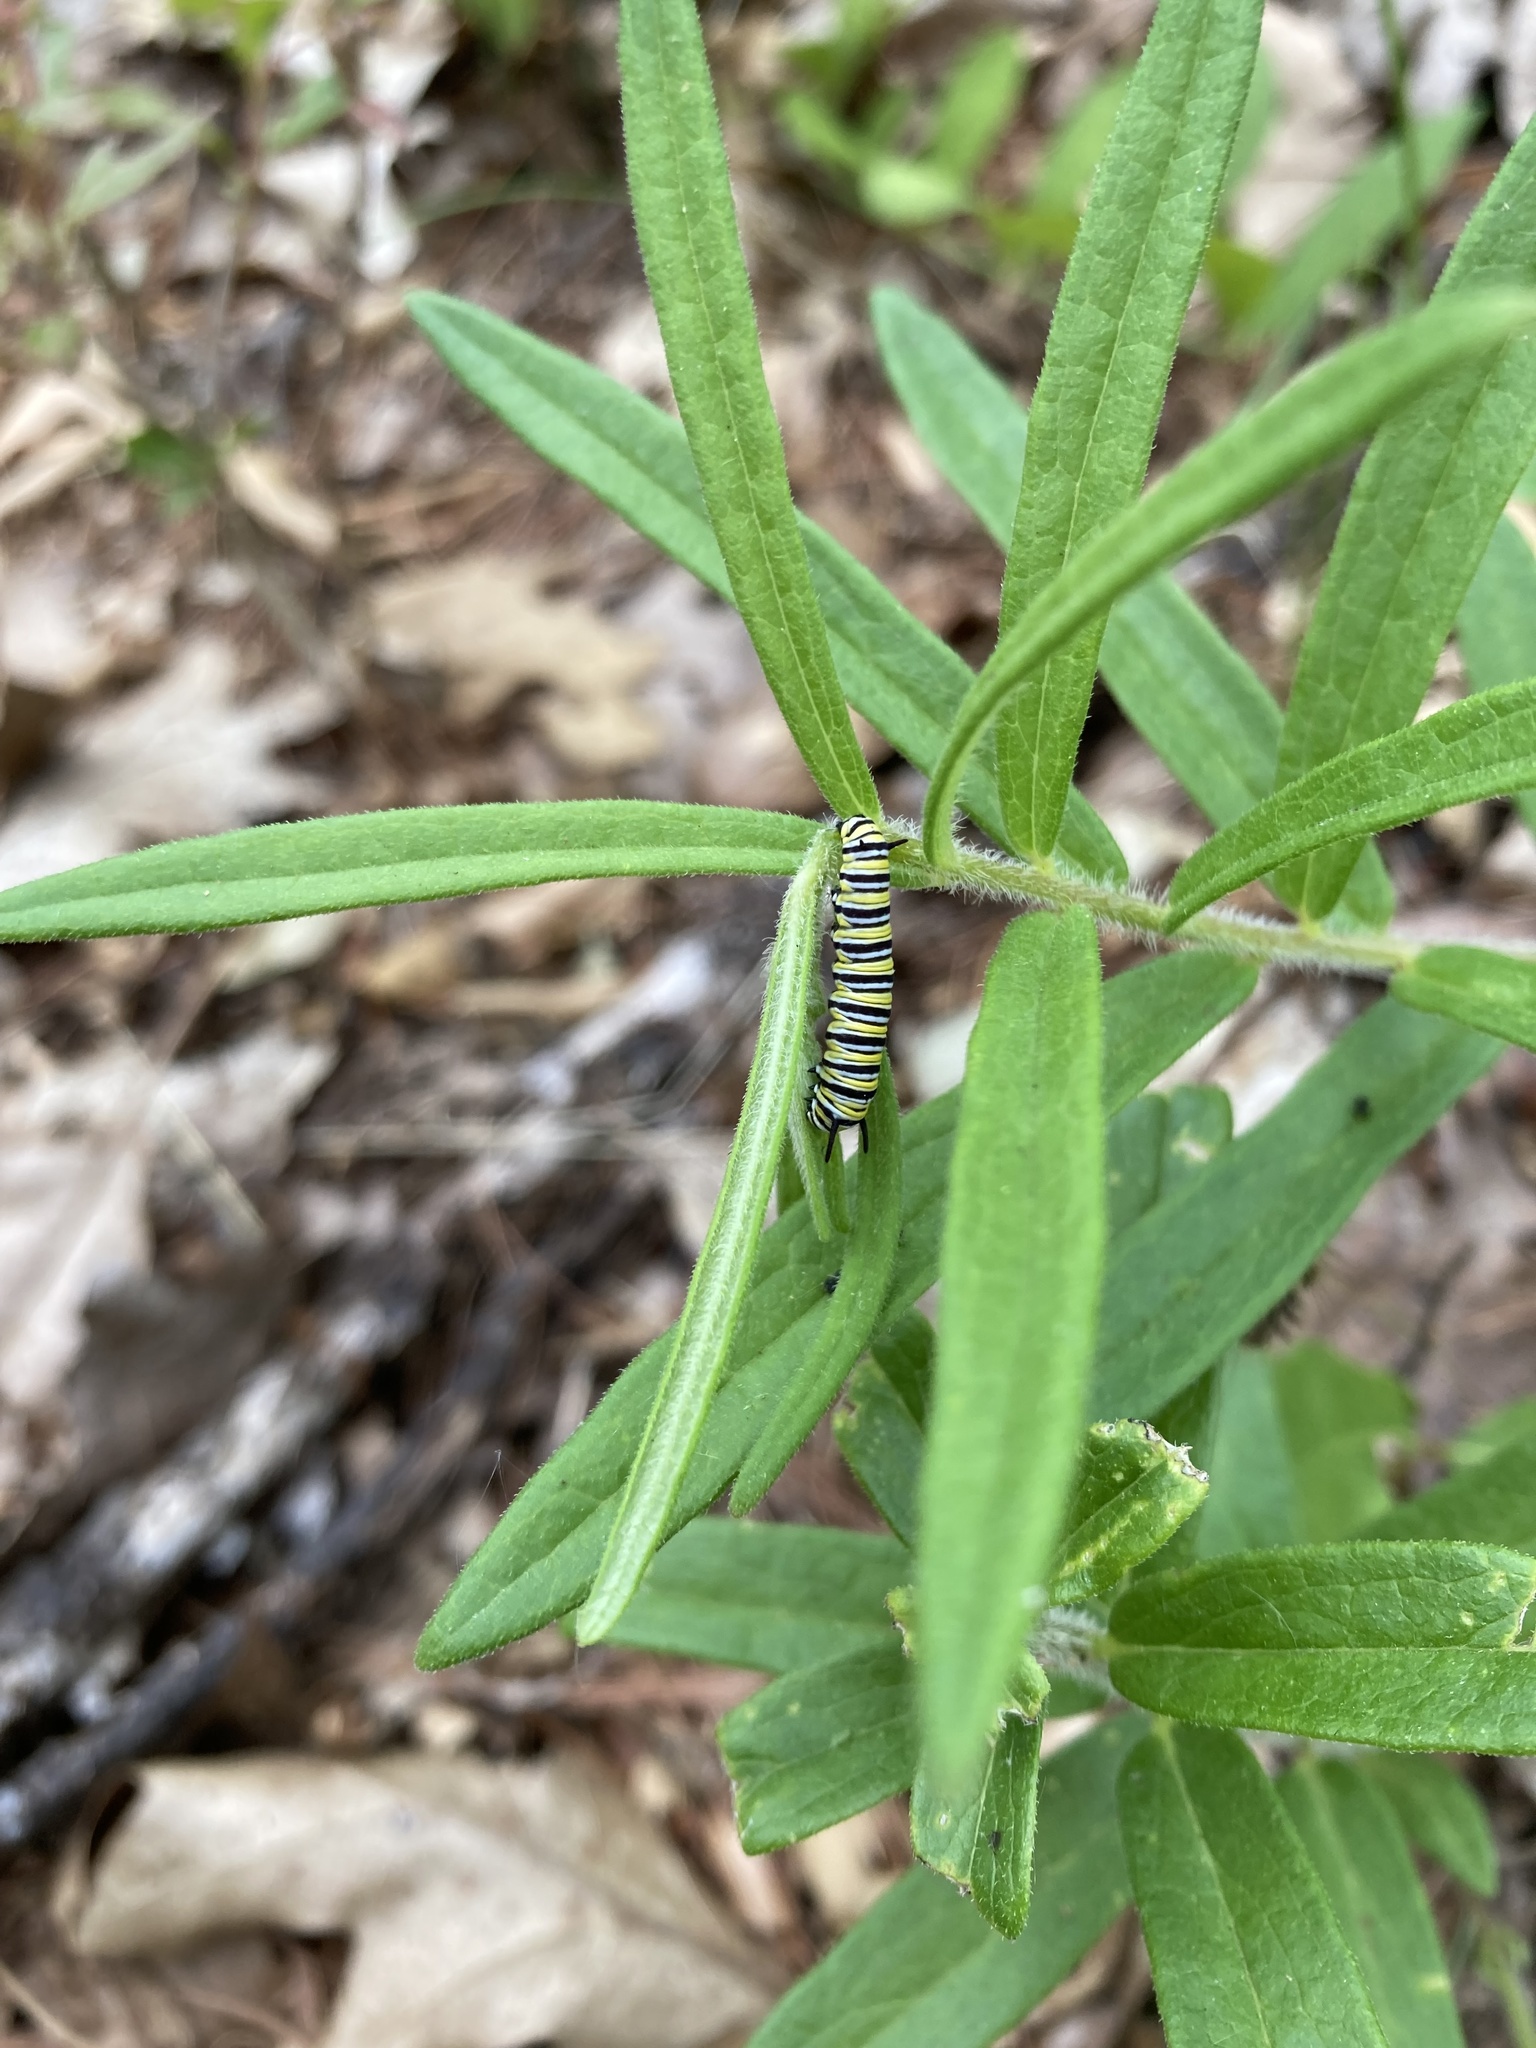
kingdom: Animalia
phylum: Arthropoda
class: Insecta
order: Lepidoptera
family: Nymphalidae
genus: Danaus
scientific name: Danaus plexippus
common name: Monarch
